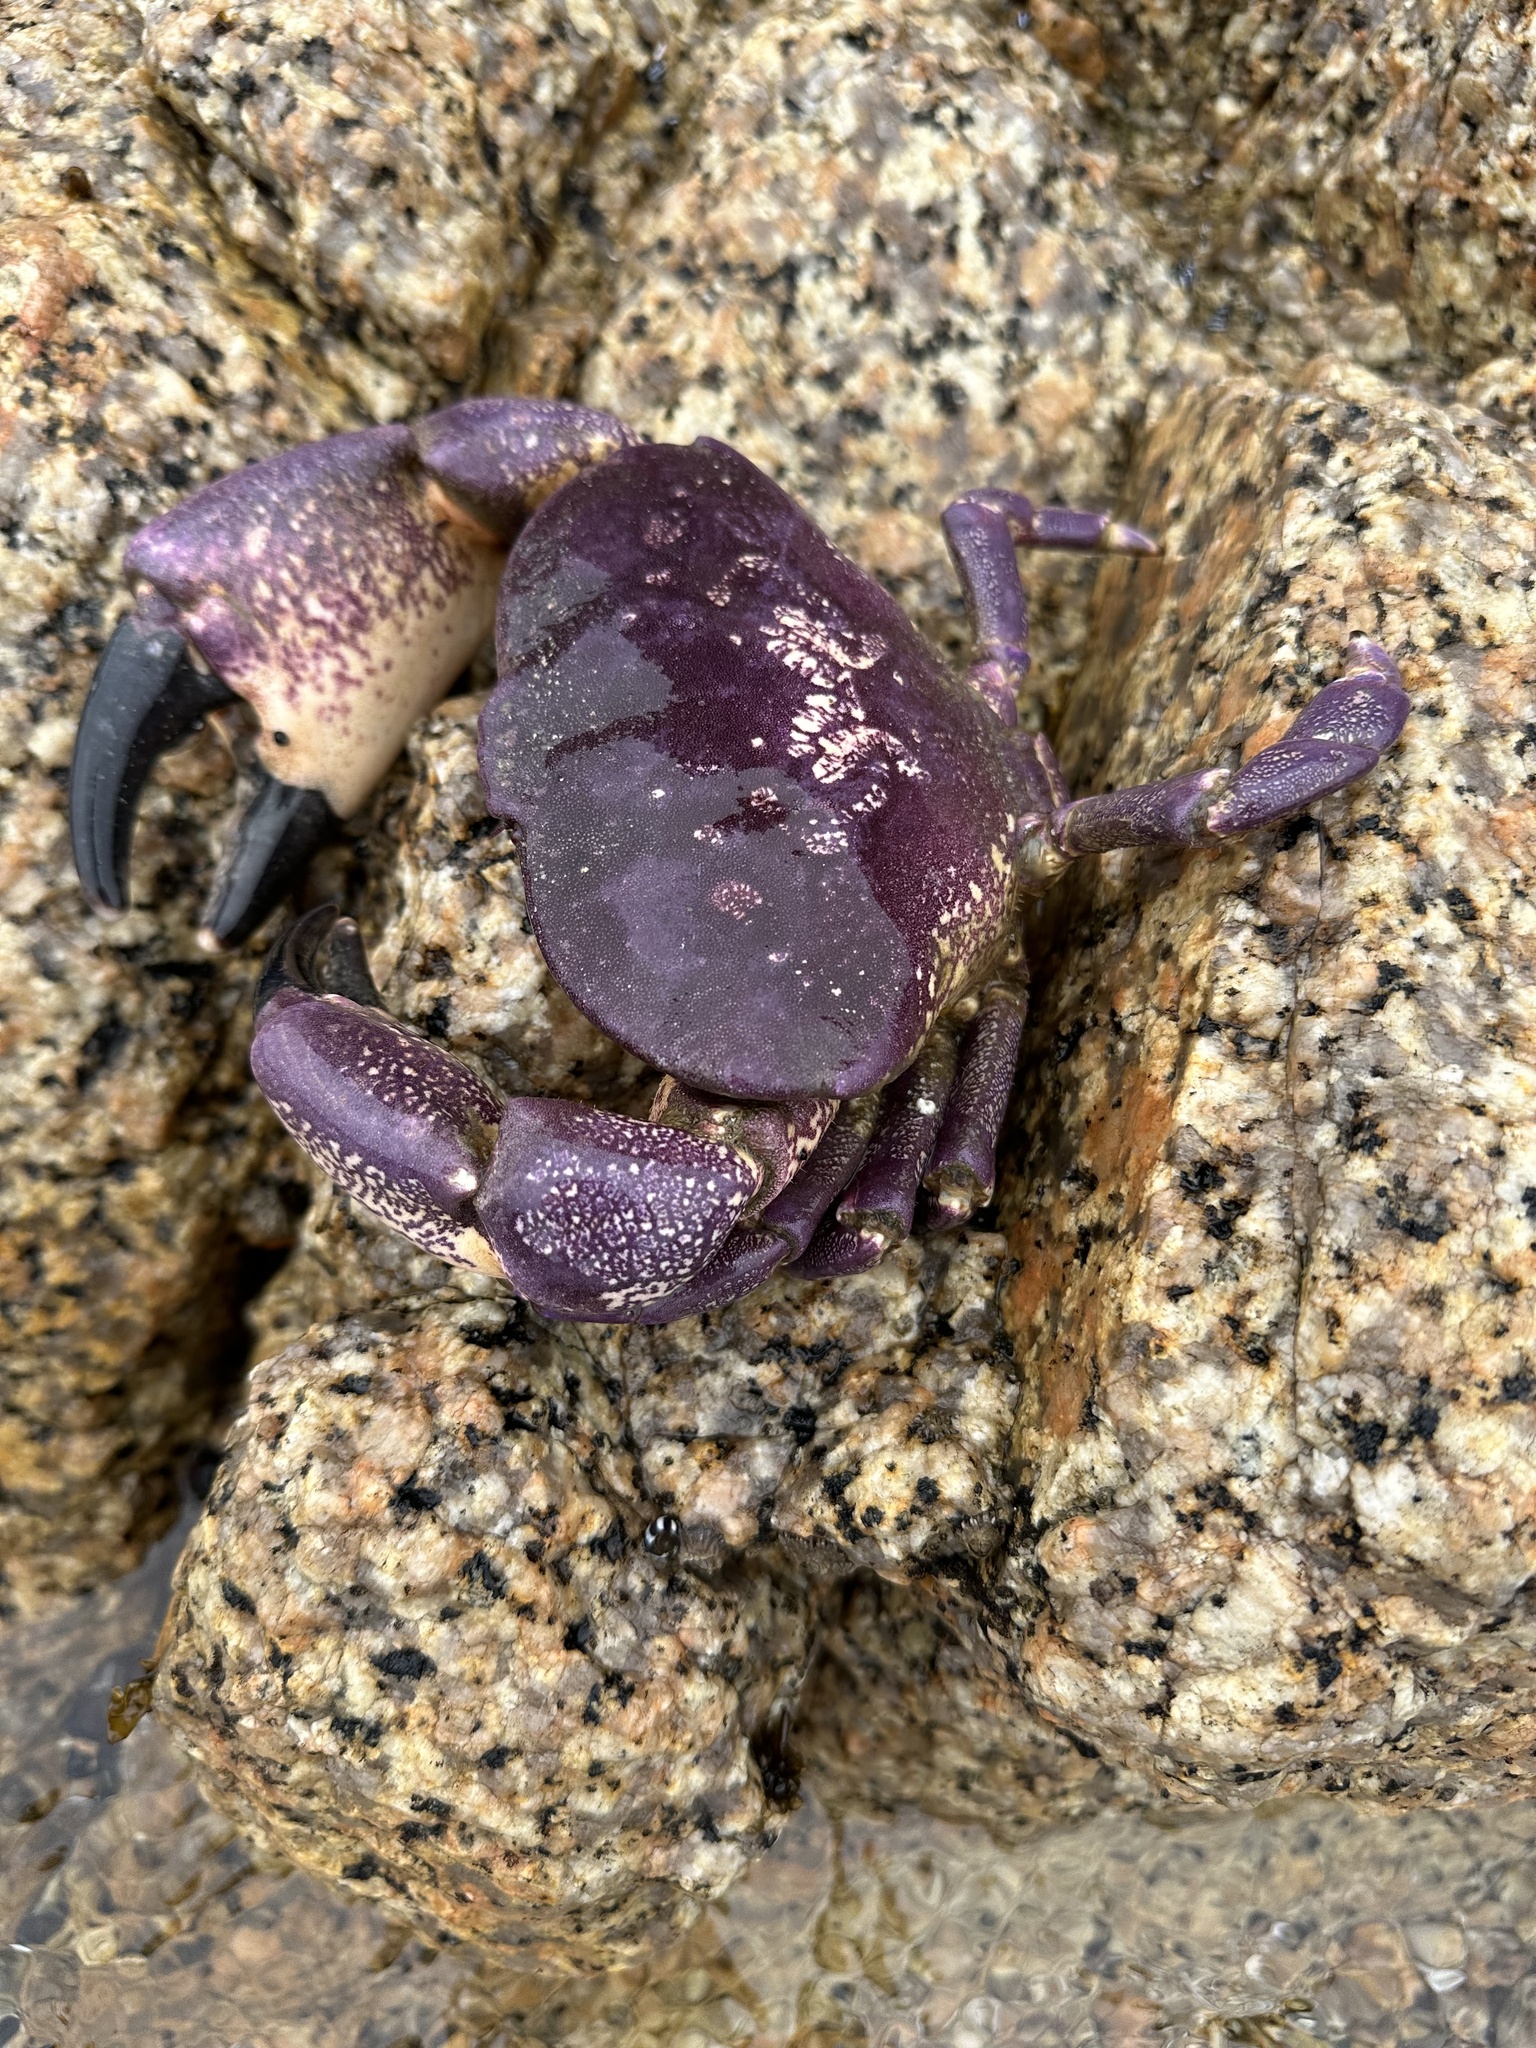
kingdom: Animalia
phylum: Arthropoda
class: Malacostraca
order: Decapoda
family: Platyxanthidae
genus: Homalaspis
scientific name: Homalaspis plana
